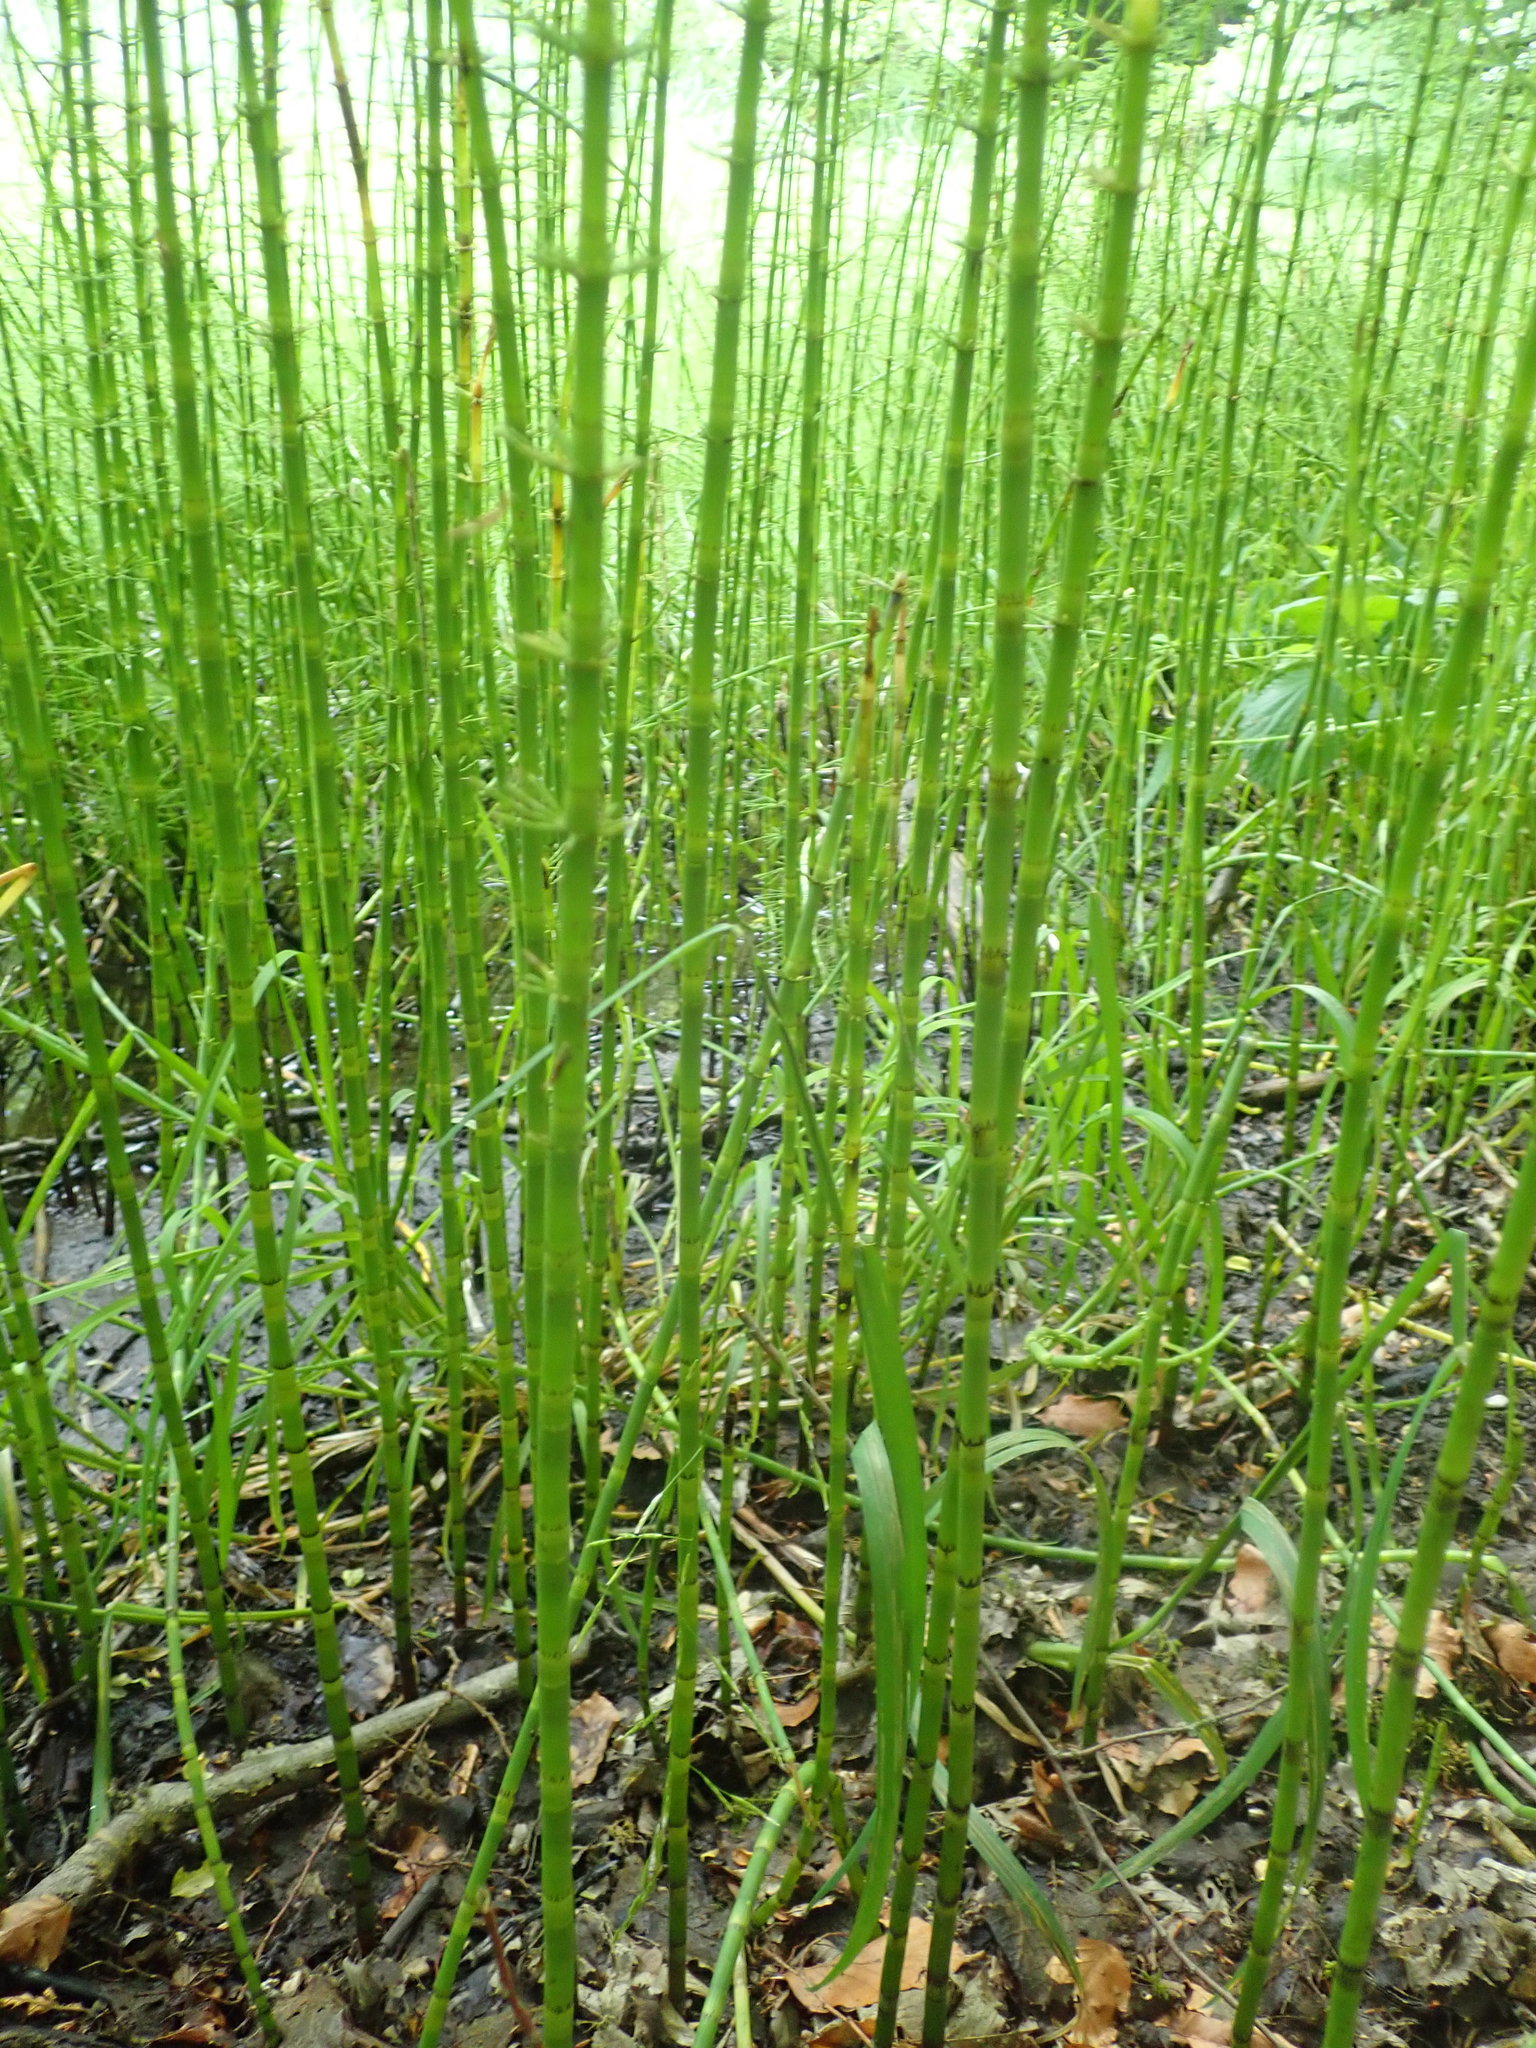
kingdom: Plantae
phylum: Tracheophyta
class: Polypodiopsida
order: Equisetales
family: Equisetaceae
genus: Equisetum
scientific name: Equisetum fluviatile
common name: Water horsetail
